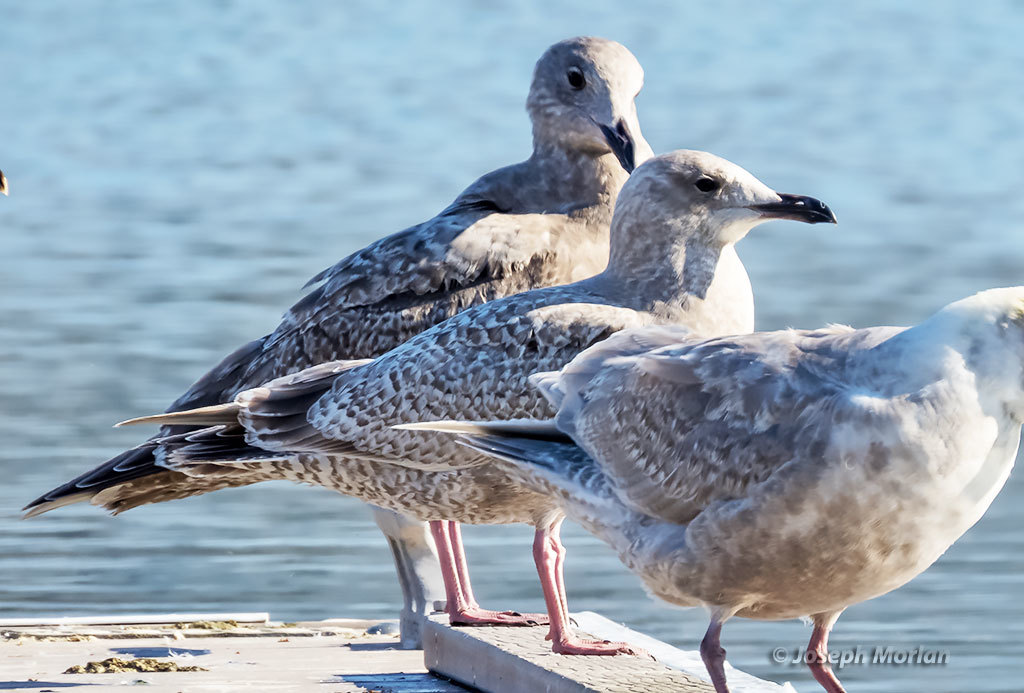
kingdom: Animalia
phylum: Chordata
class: Aves
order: Charadriiformes
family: Laridae
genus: Larus
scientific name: Larus glaucoides
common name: Iceland gull
